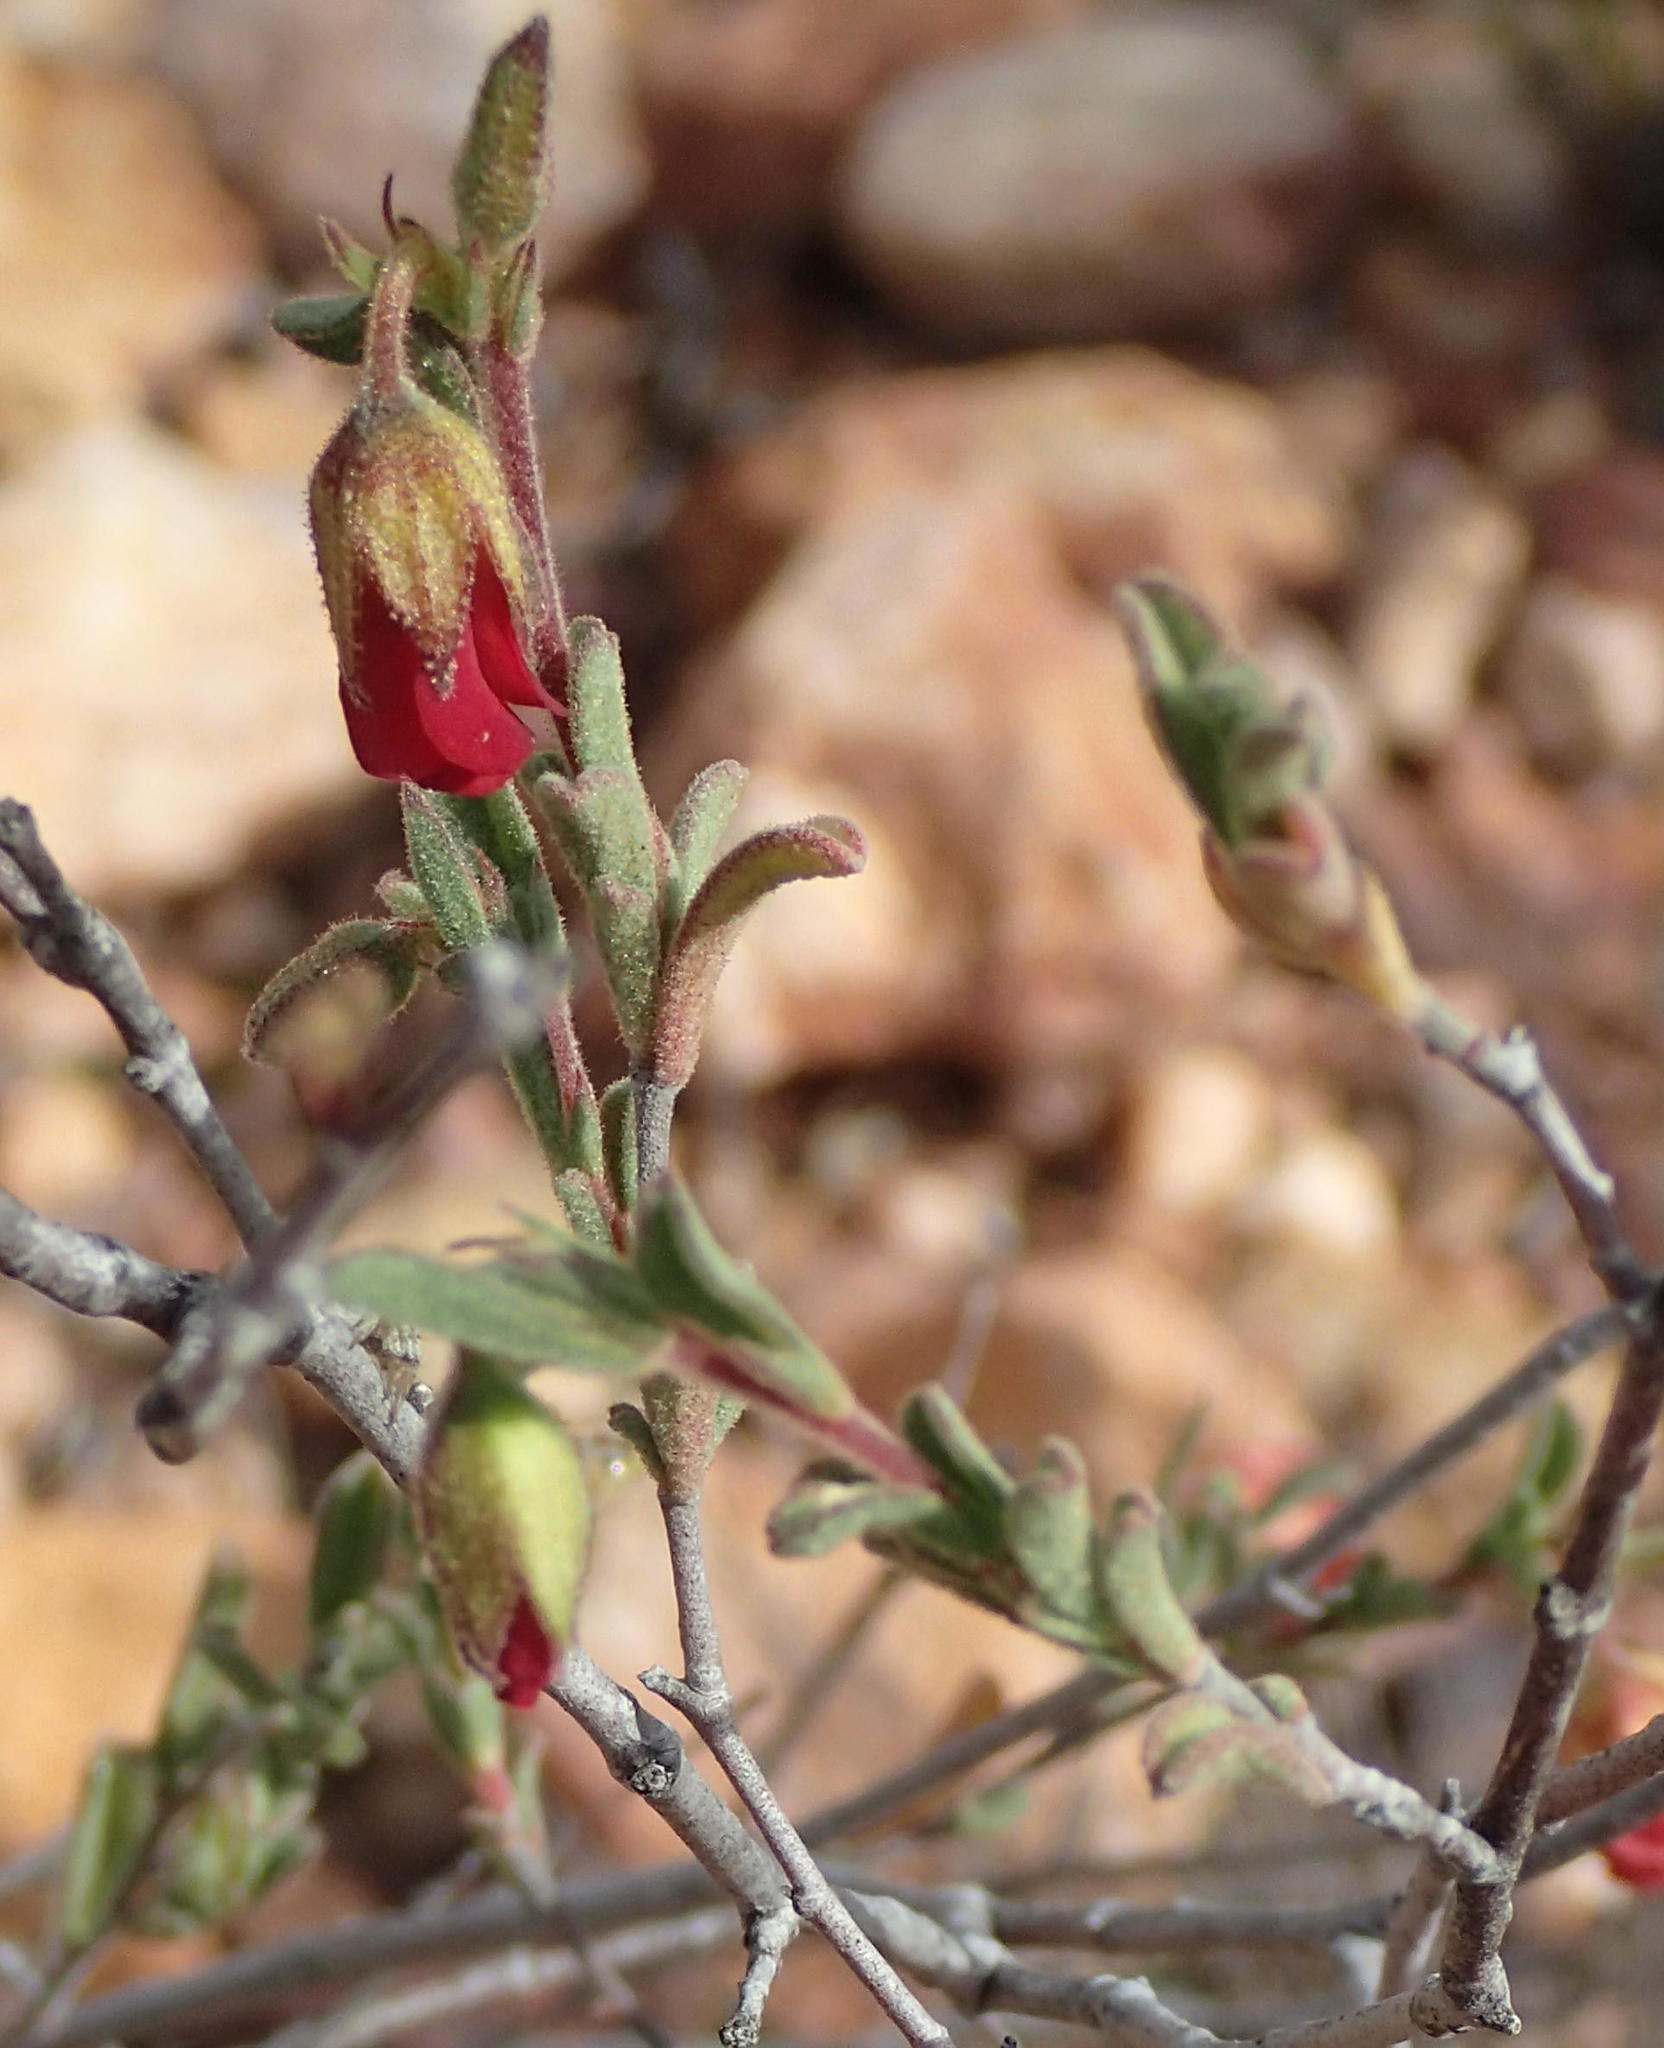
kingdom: Plantae
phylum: Tracheophyta
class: Magnoliopsida
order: Malvales
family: Malvaceae
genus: Hermannia
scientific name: Hermannia flammula
